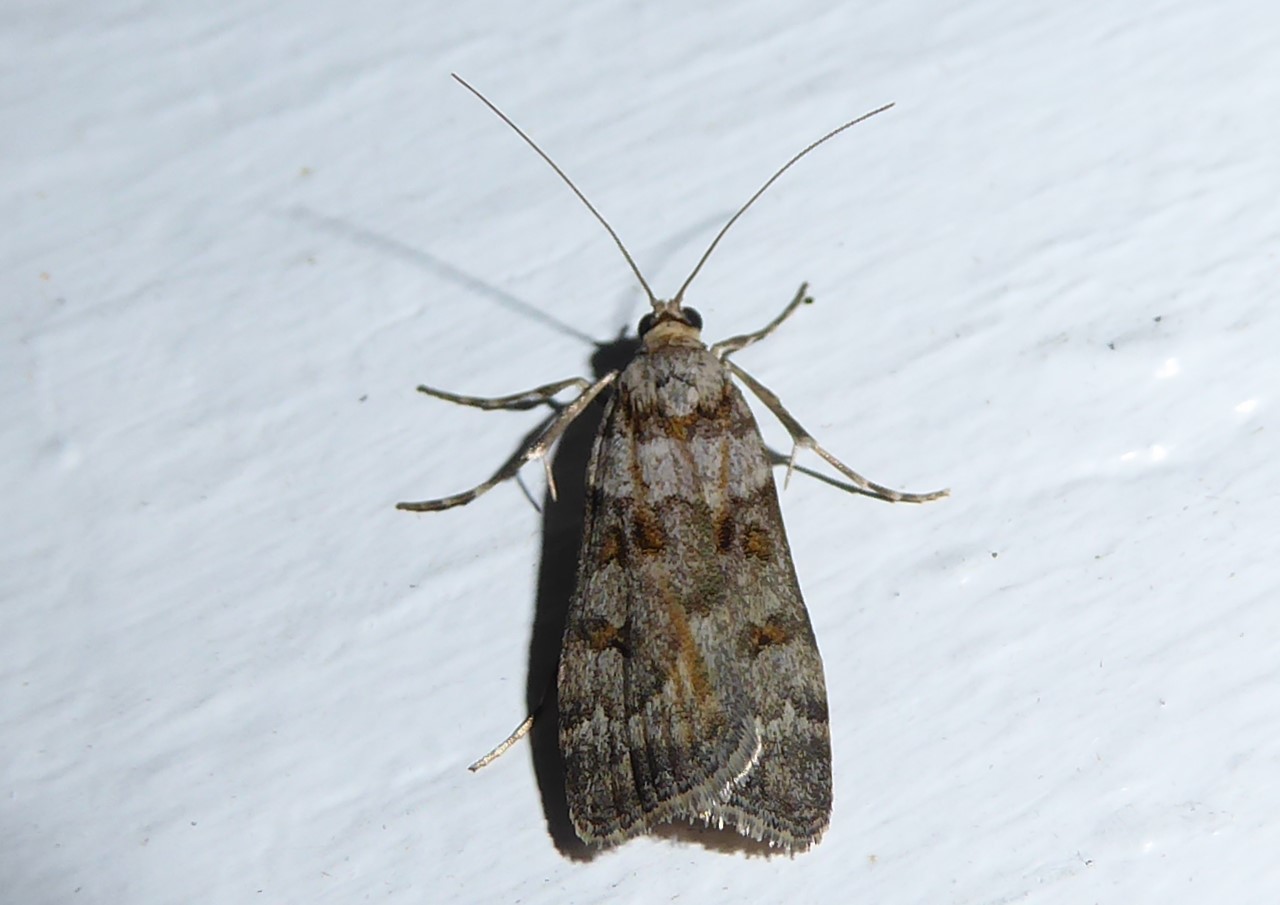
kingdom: Animalia
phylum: Arthropoda
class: Insecta
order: Lepidoptera
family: Crambidae
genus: Eudonia
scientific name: Eudonia diphtheralis
